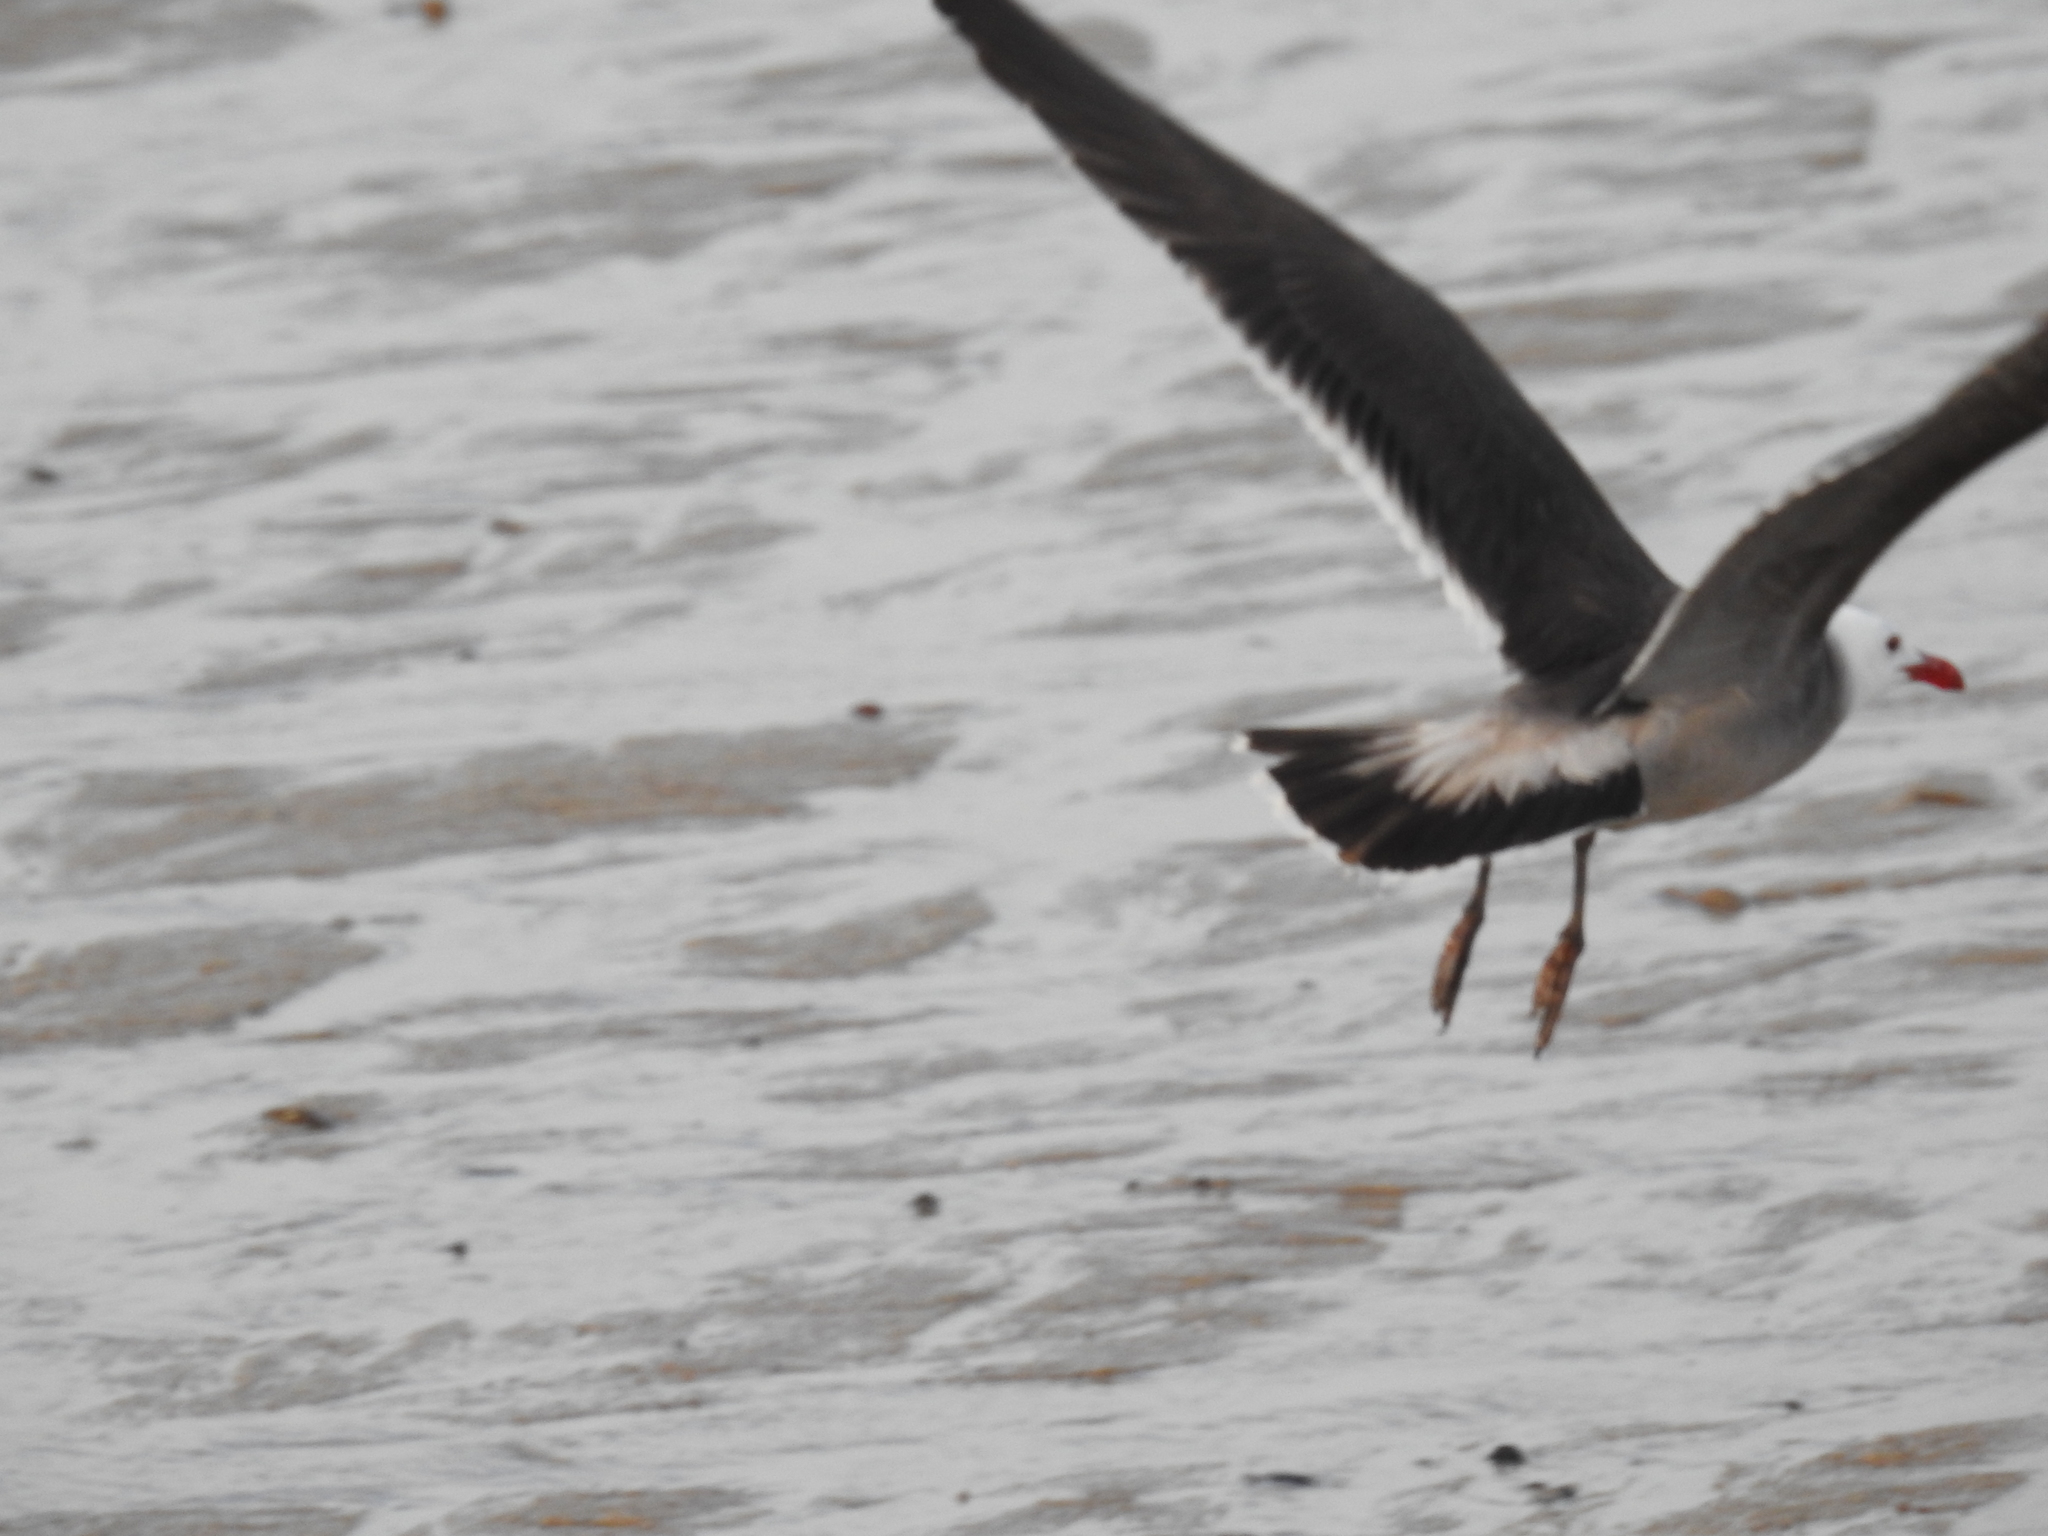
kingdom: Animalia
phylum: Chordata
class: Aves
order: Charadriiformes
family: Laridae
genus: Larus
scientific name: Larus heermanni
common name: Heermann's gull
